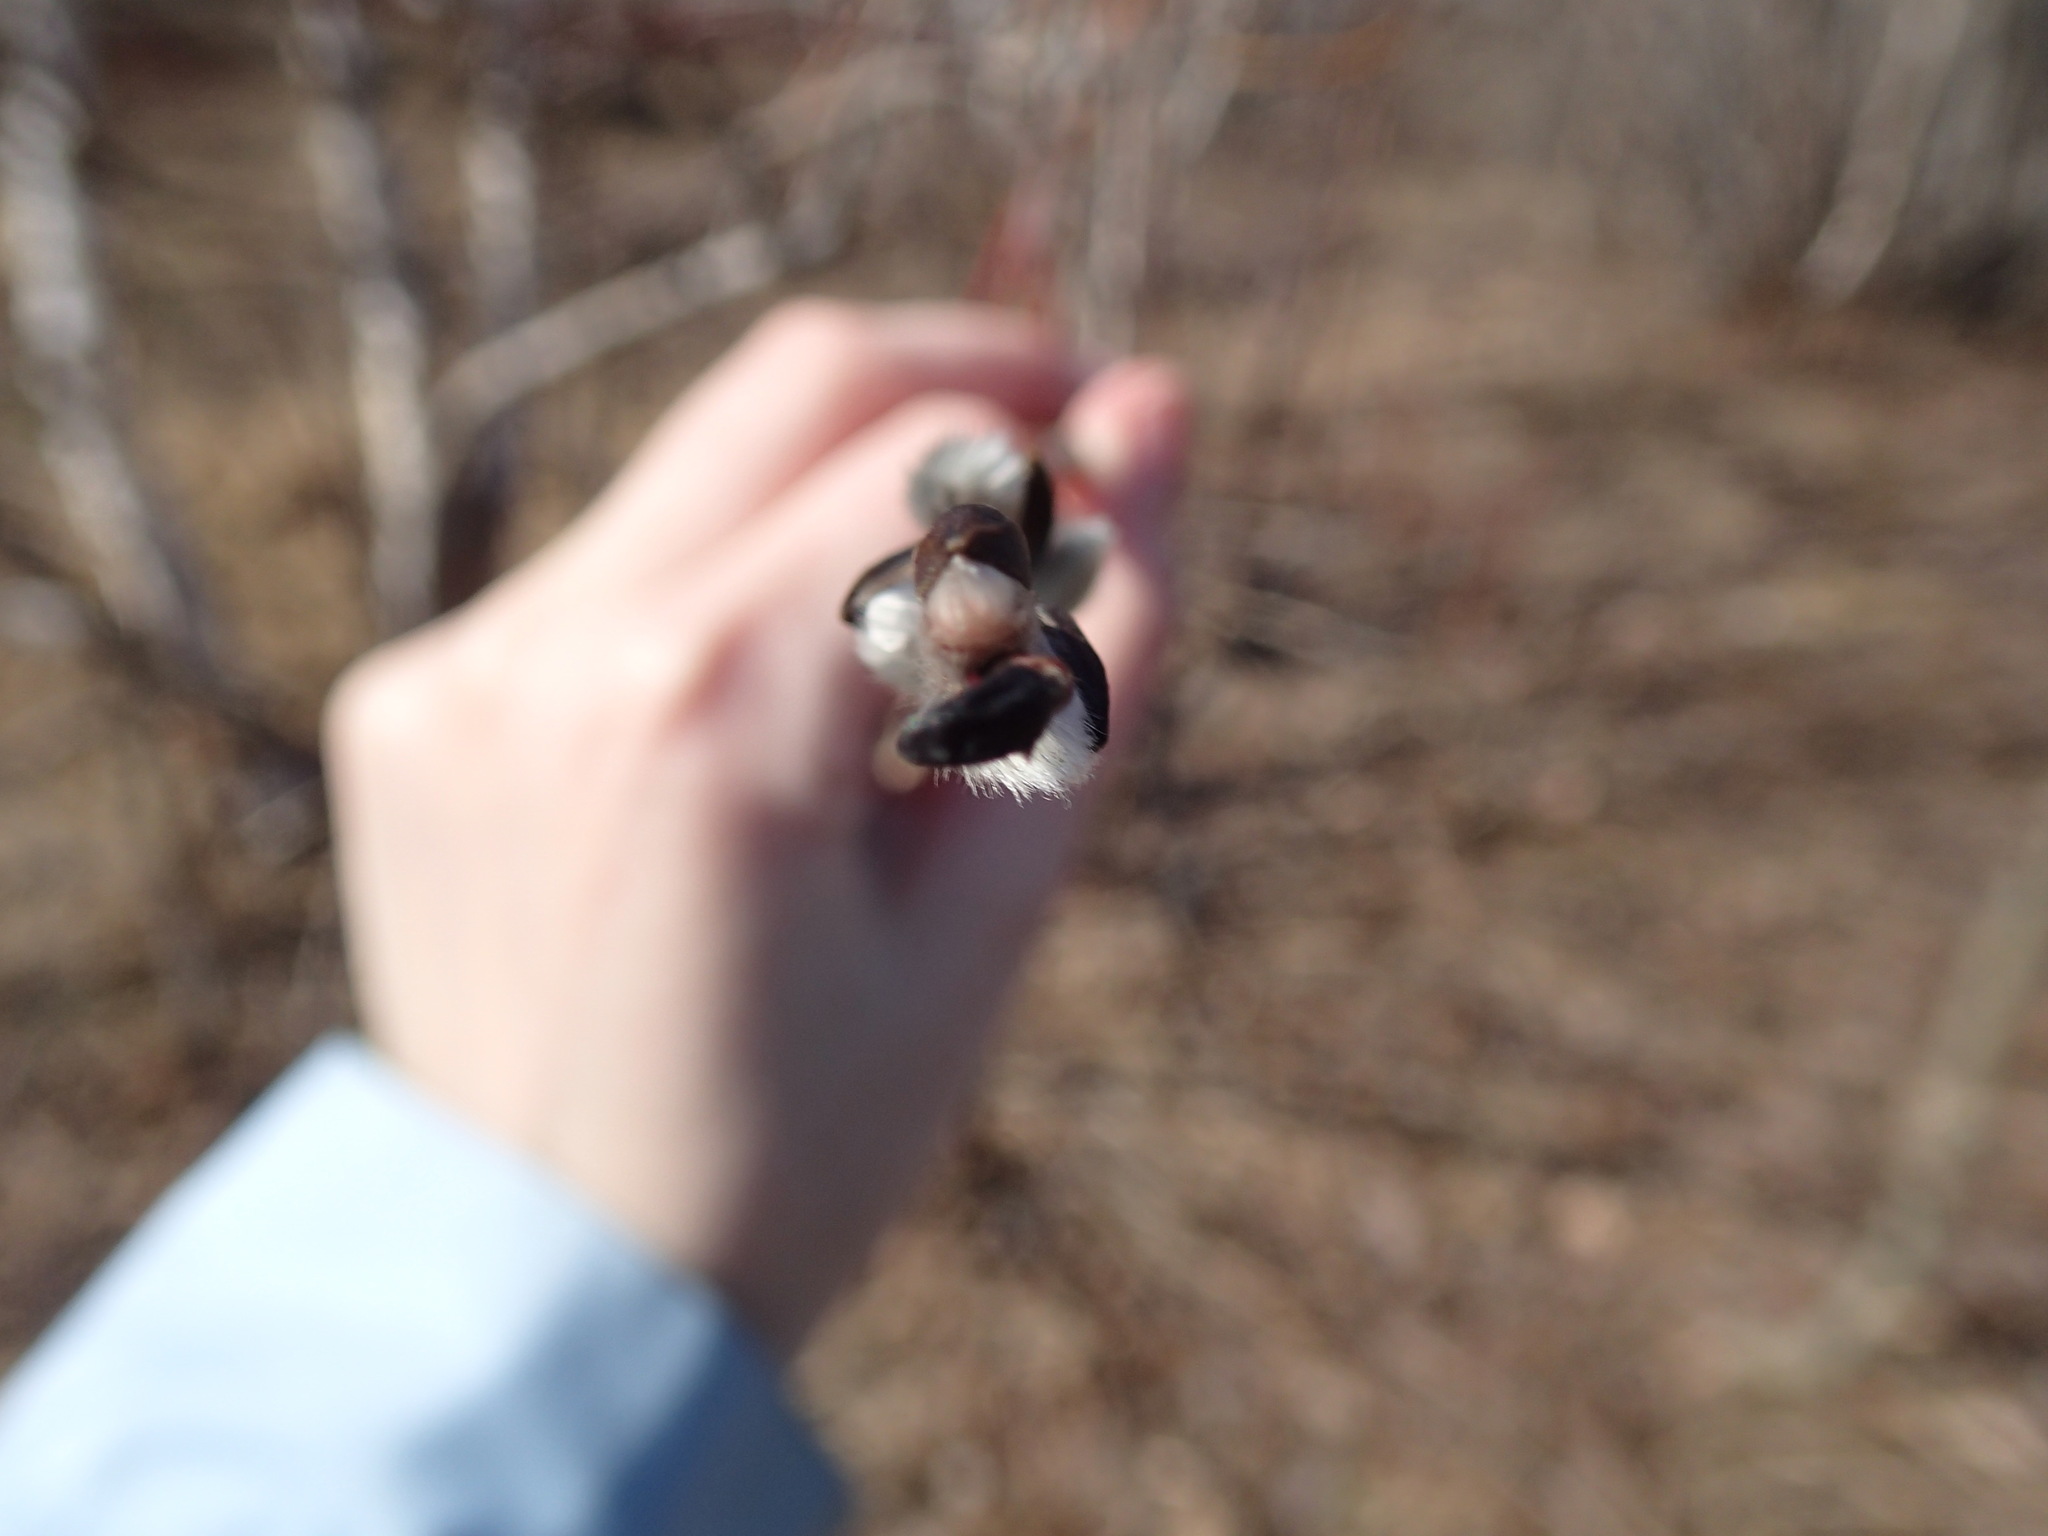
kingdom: Plantae
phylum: Tracheophyta
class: Magnoliopsida
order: Malpighiales
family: Salicaceae
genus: Salix
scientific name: Salix discolor
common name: Glaucous willow
